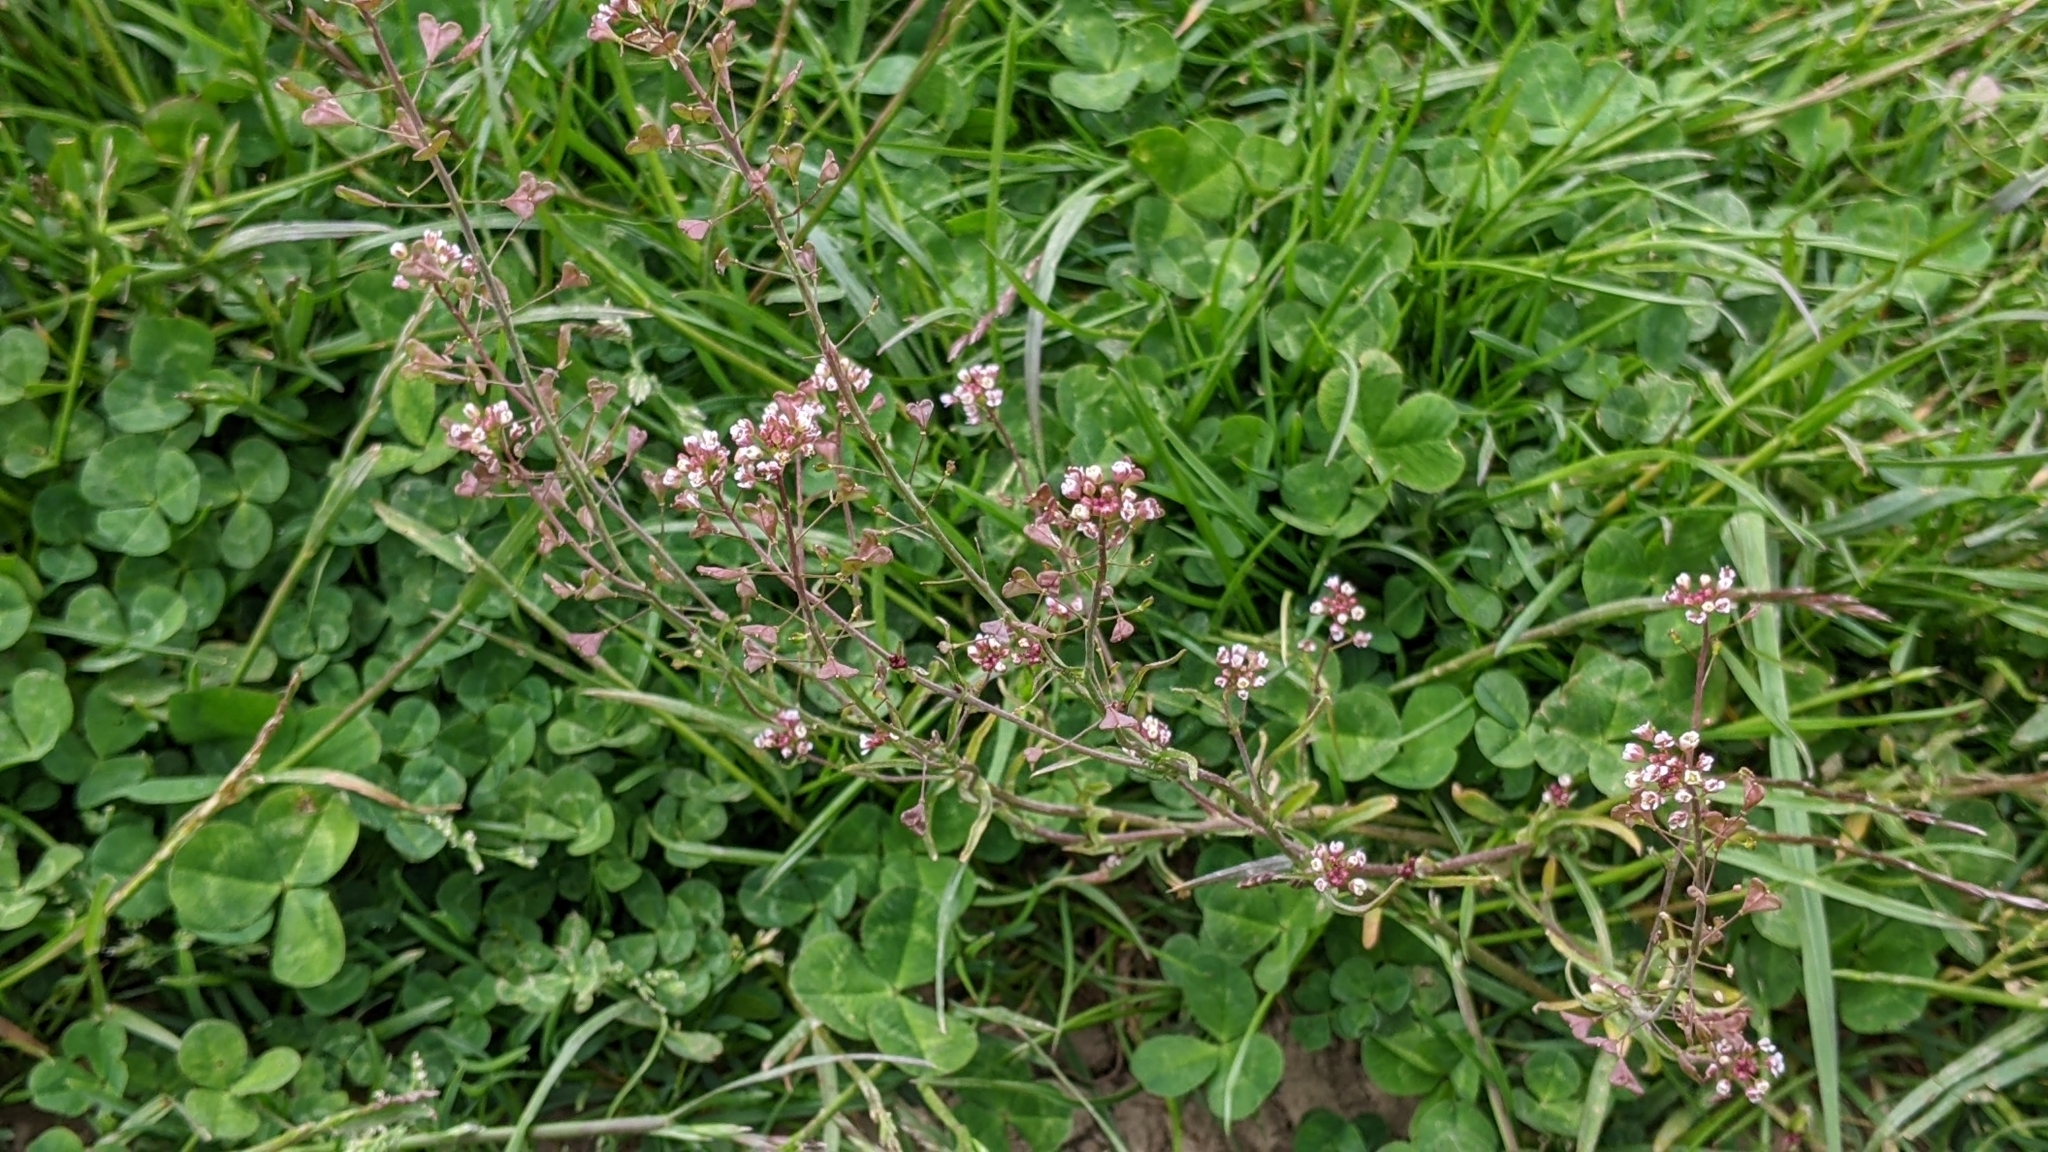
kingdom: Plantae
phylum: Tracheophyta
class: Magnoliopsida
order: Brassicales
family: Brassicaceae
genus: Capsella
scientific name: Capsella bursa-pastoris
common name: Shepherd's purse
